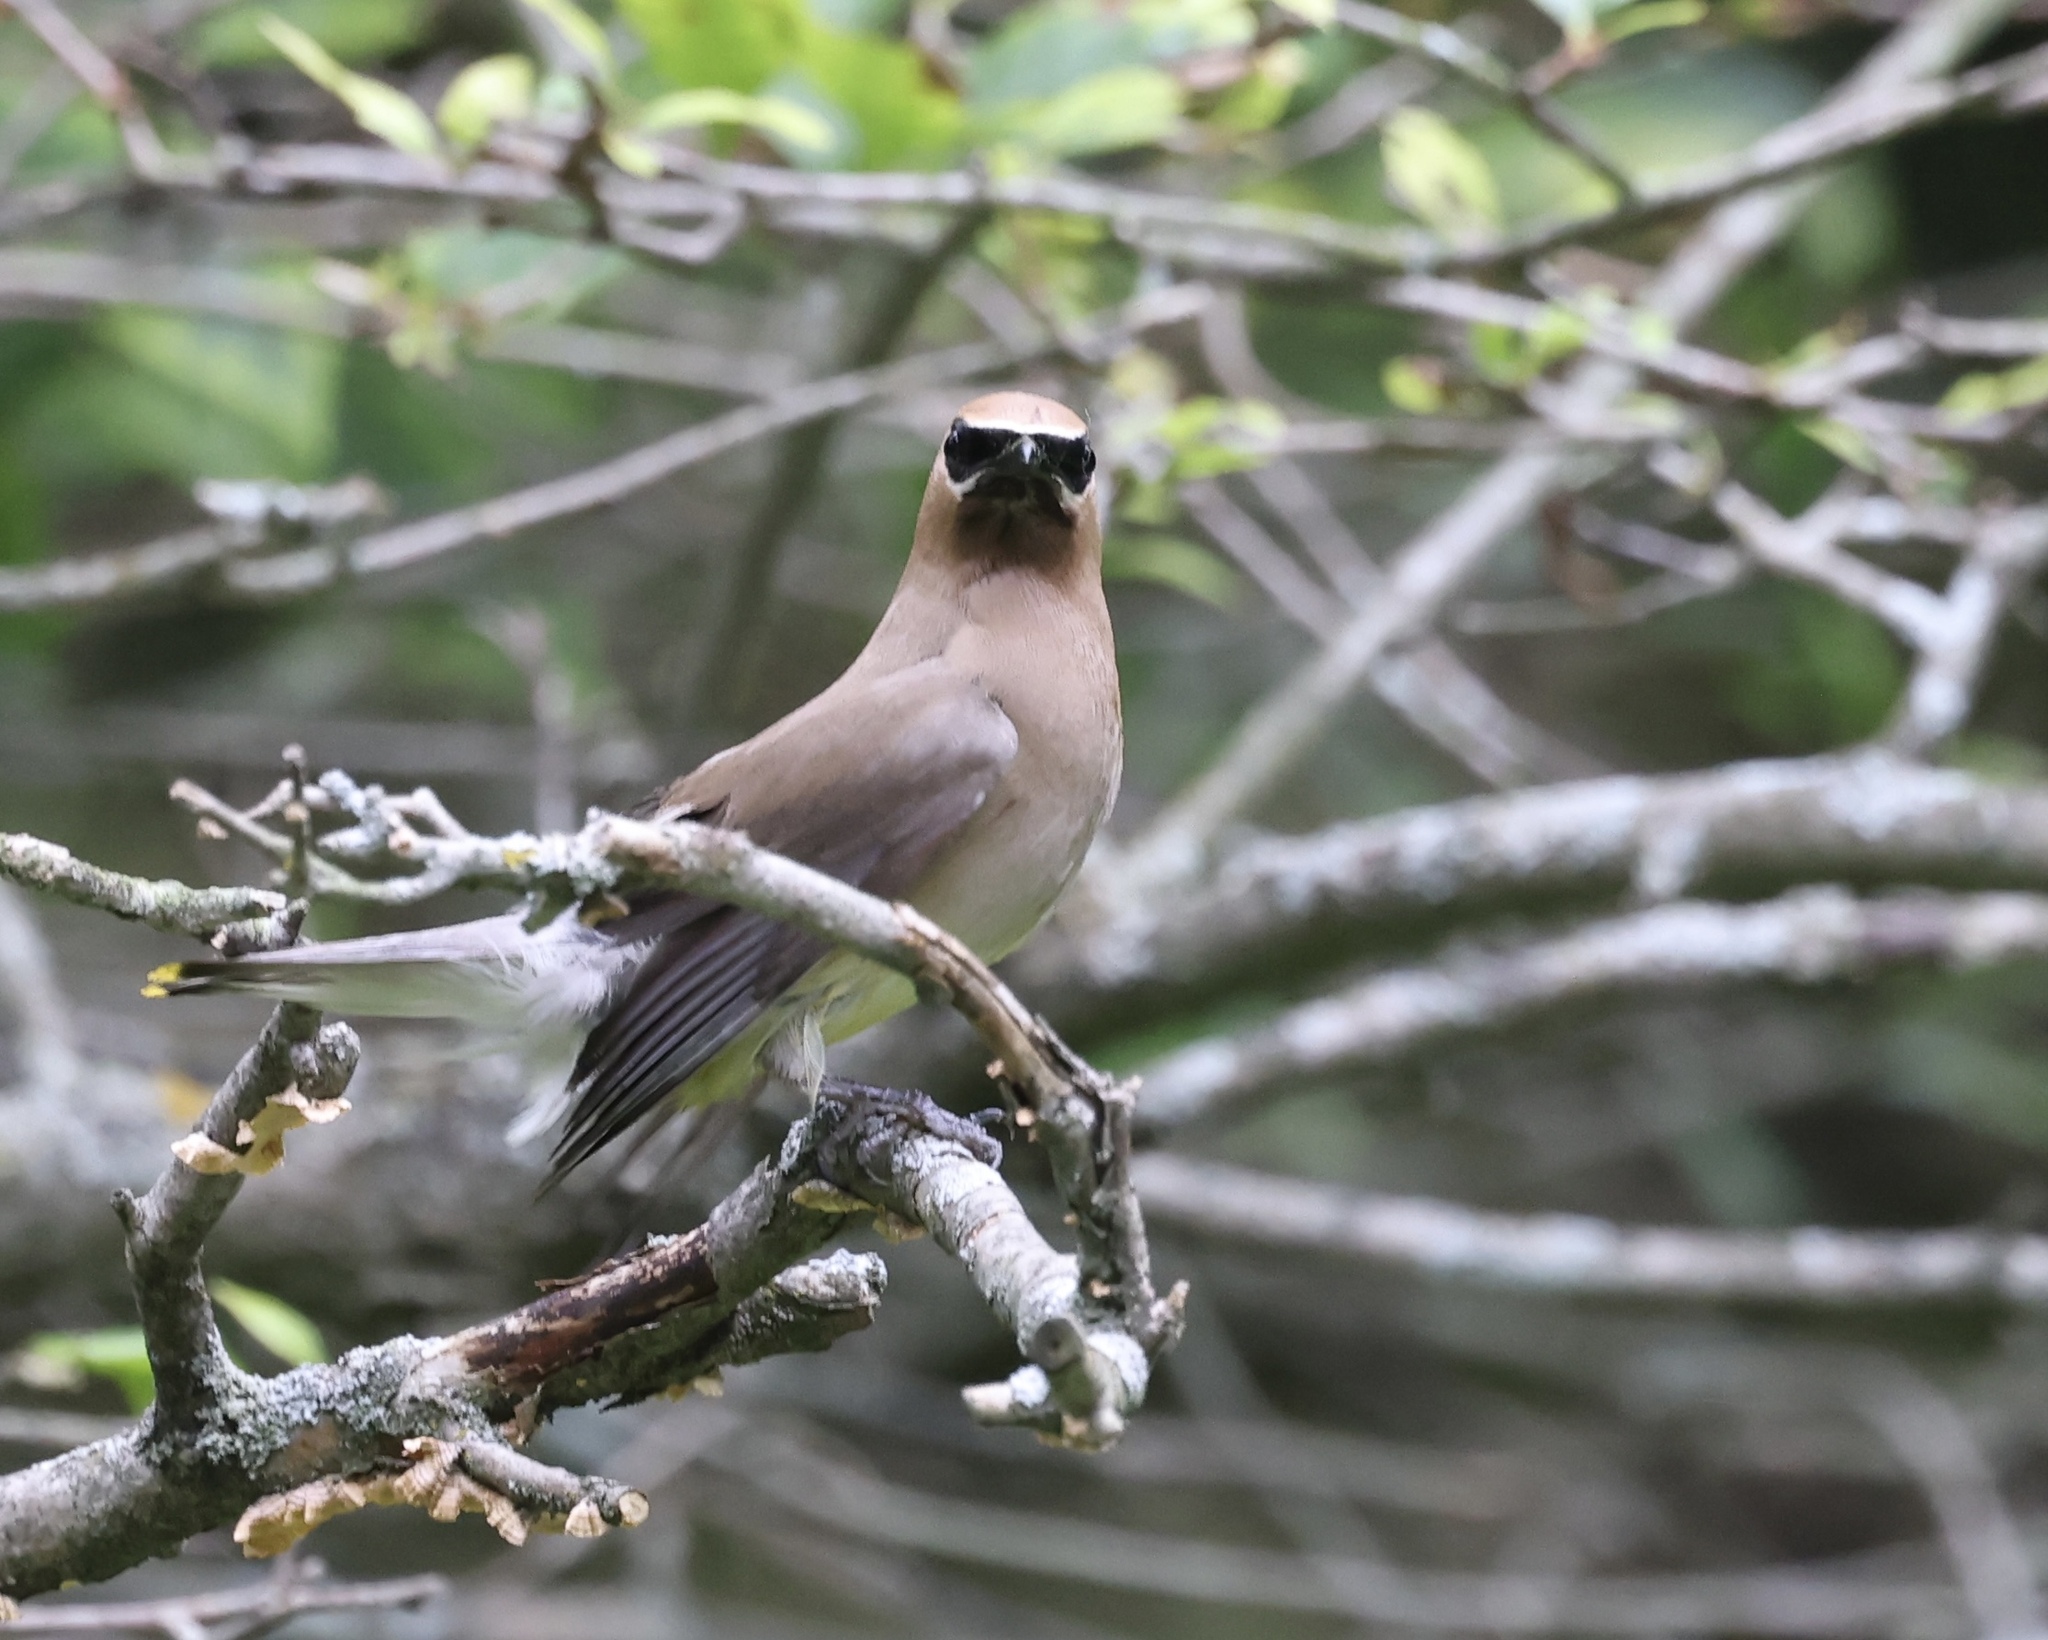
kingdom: Animalia
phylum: Chordata
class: Aves
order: Passeriformes
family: Bombycillidae
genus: Bombycilla
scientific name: Bombycilla cedrorum
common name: Cedar waxwing
